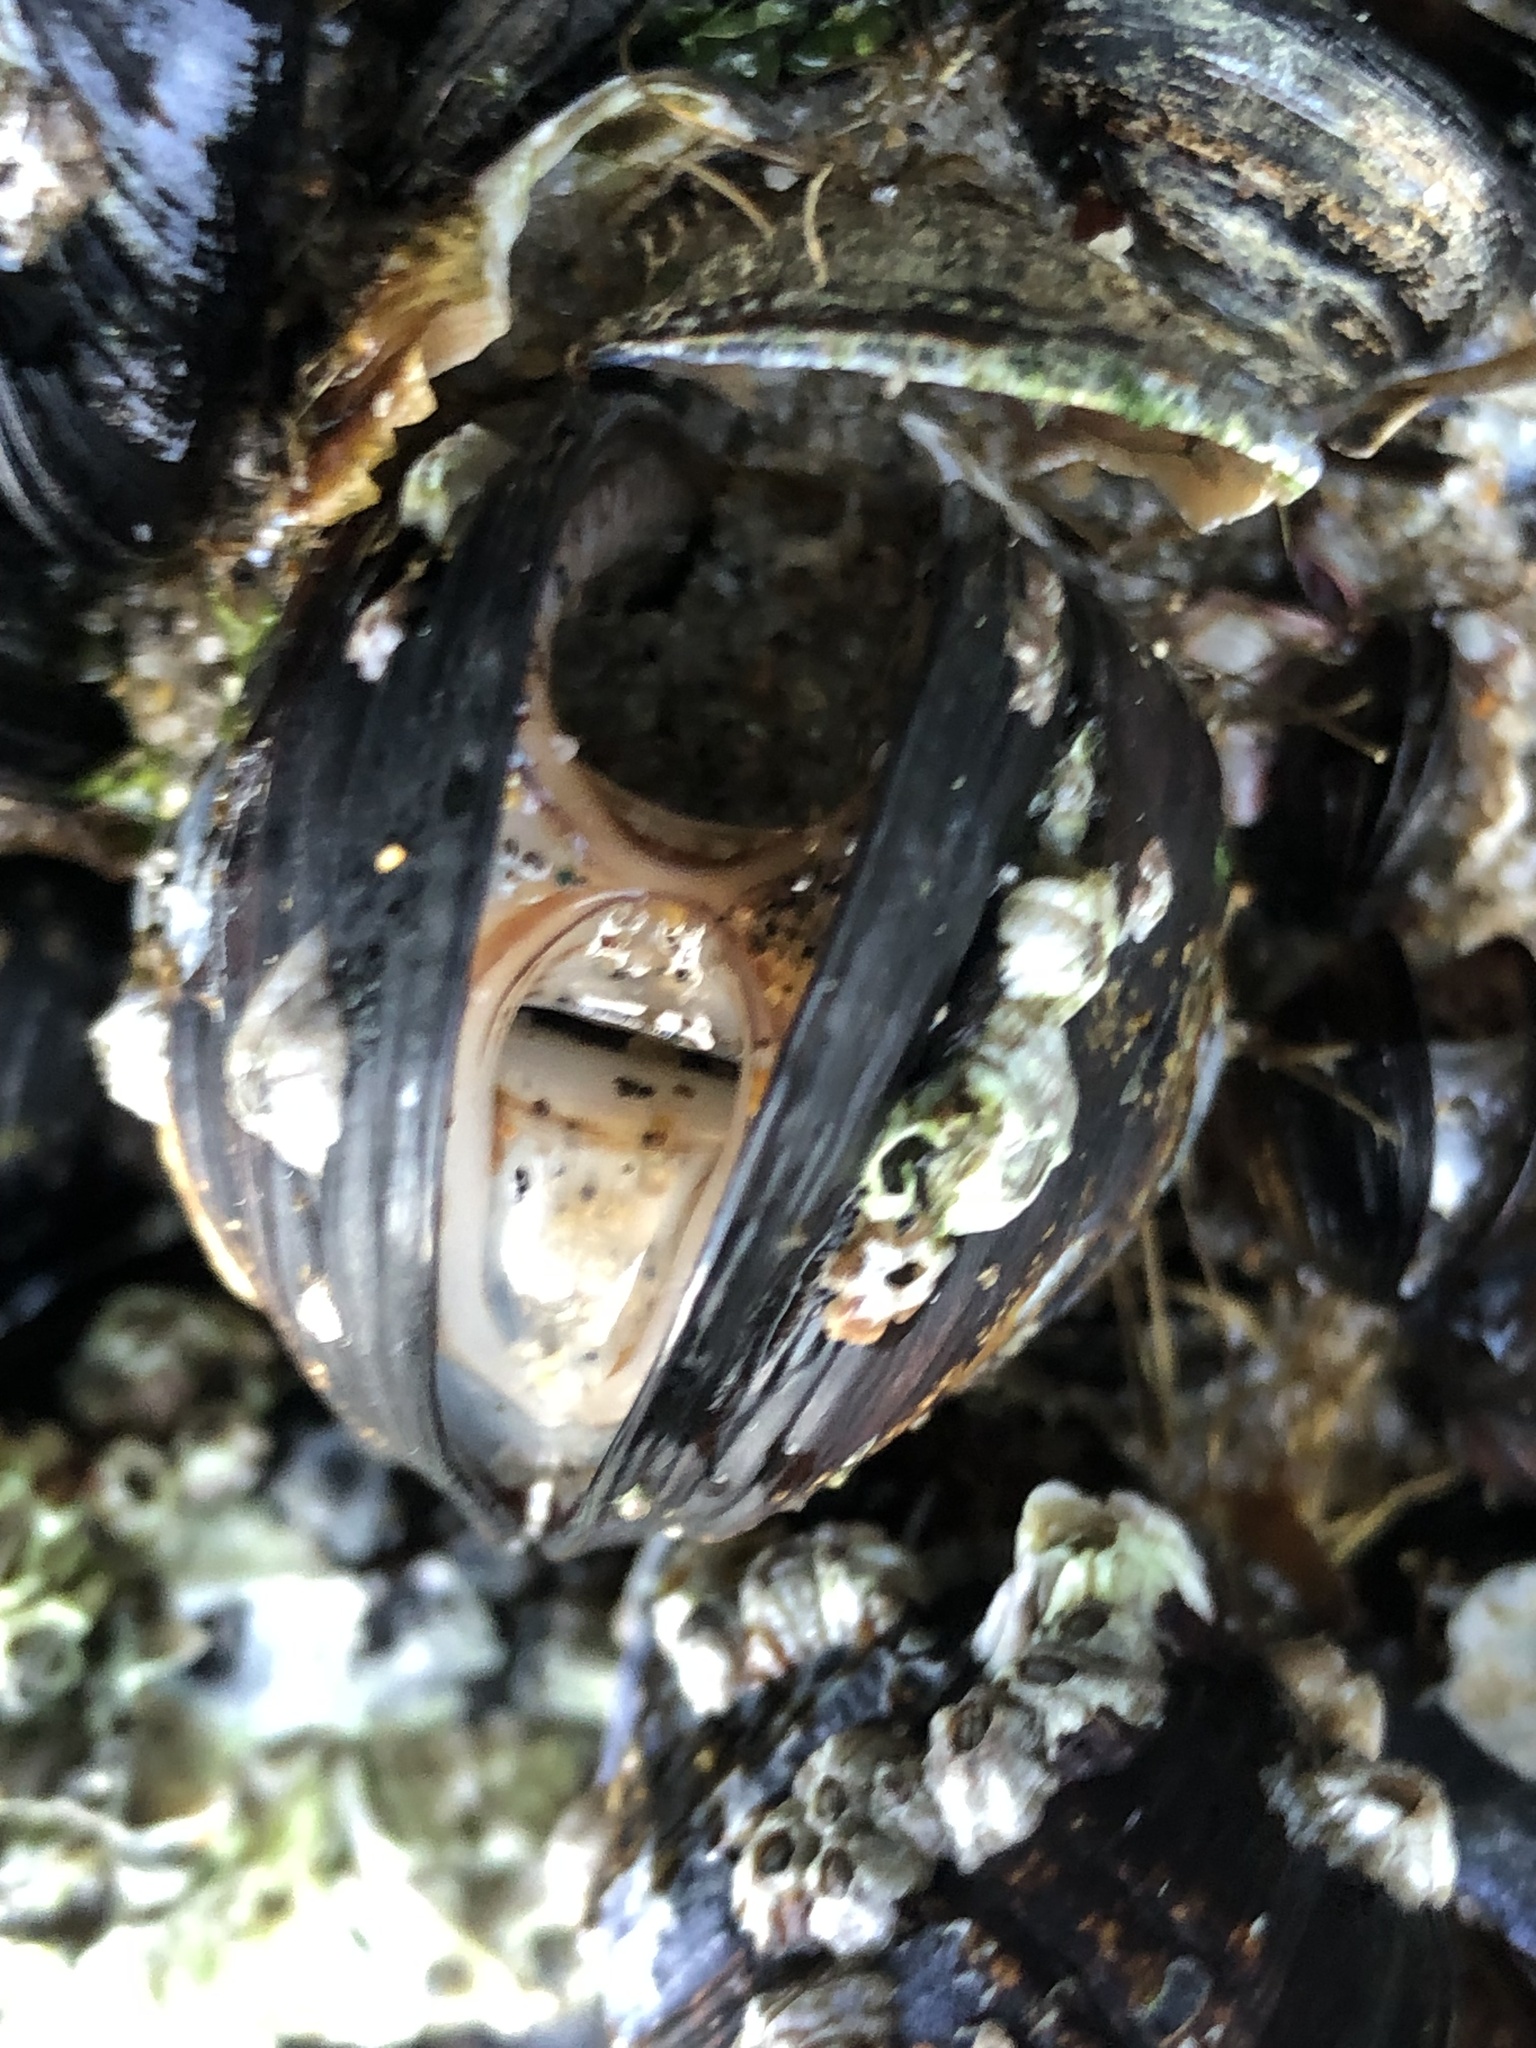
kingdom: Animalia
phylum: Mollusca
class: Bivalvia
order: Mytilida
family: Mytilidae
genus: Mytilus
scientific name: Mytilus californianus
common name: California mussel
